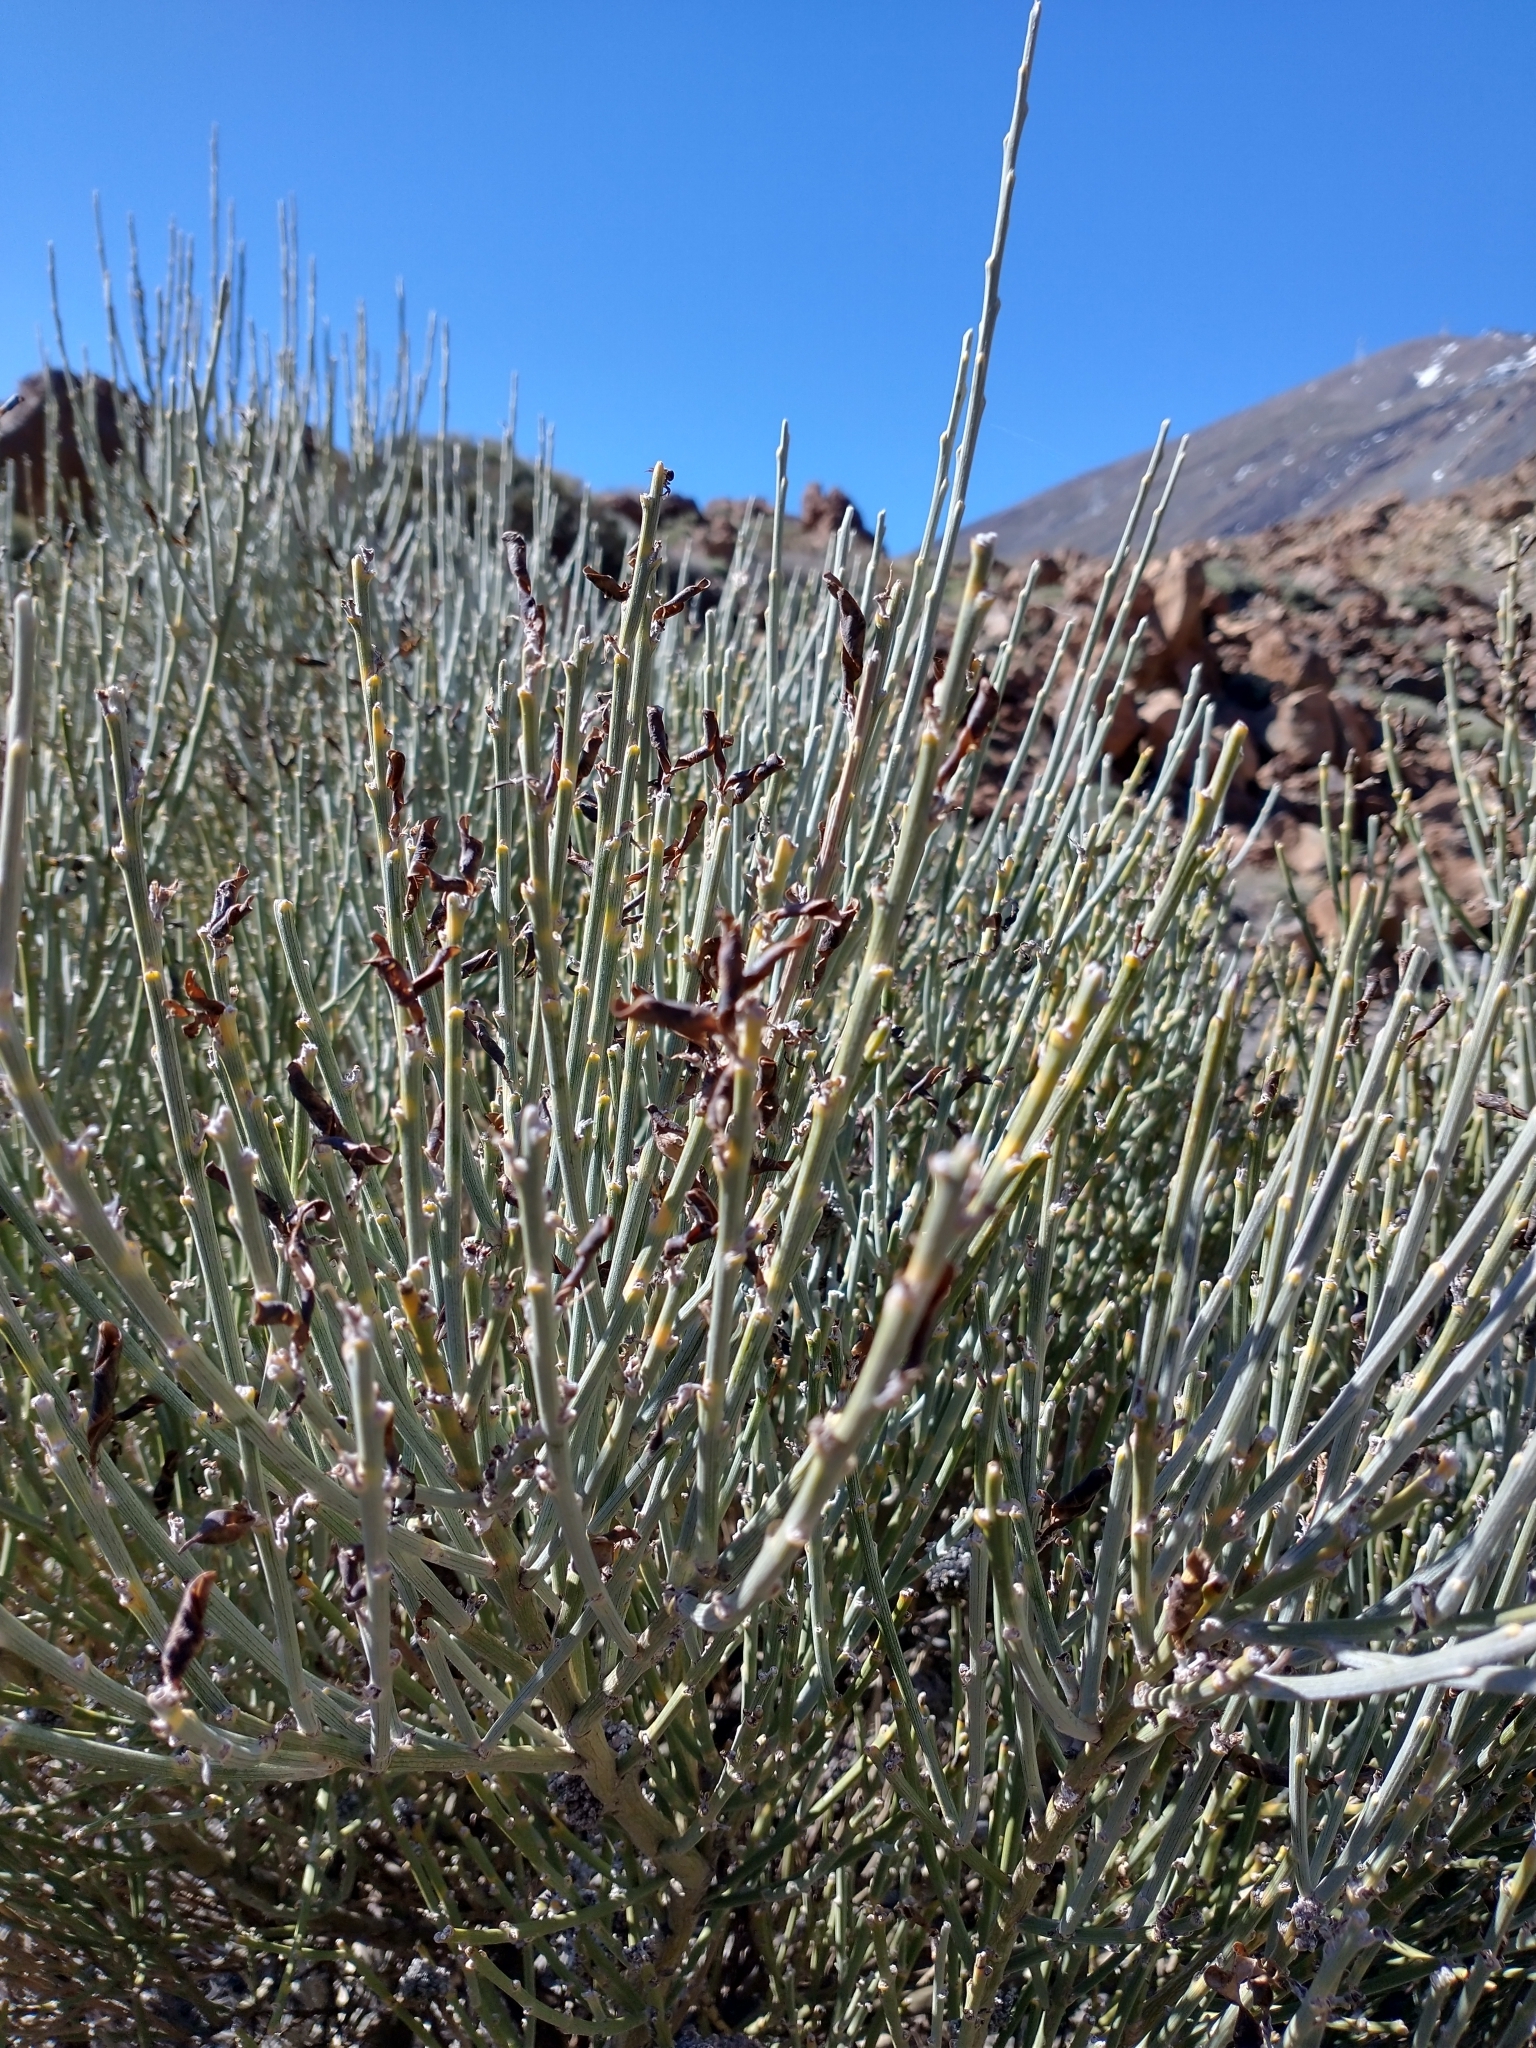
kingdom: Plantae
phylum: Tracheophyta
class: Magnoliopsida
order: Fabales
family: Fabaceae
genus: Cytisus
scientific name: Cytisus supranubius
